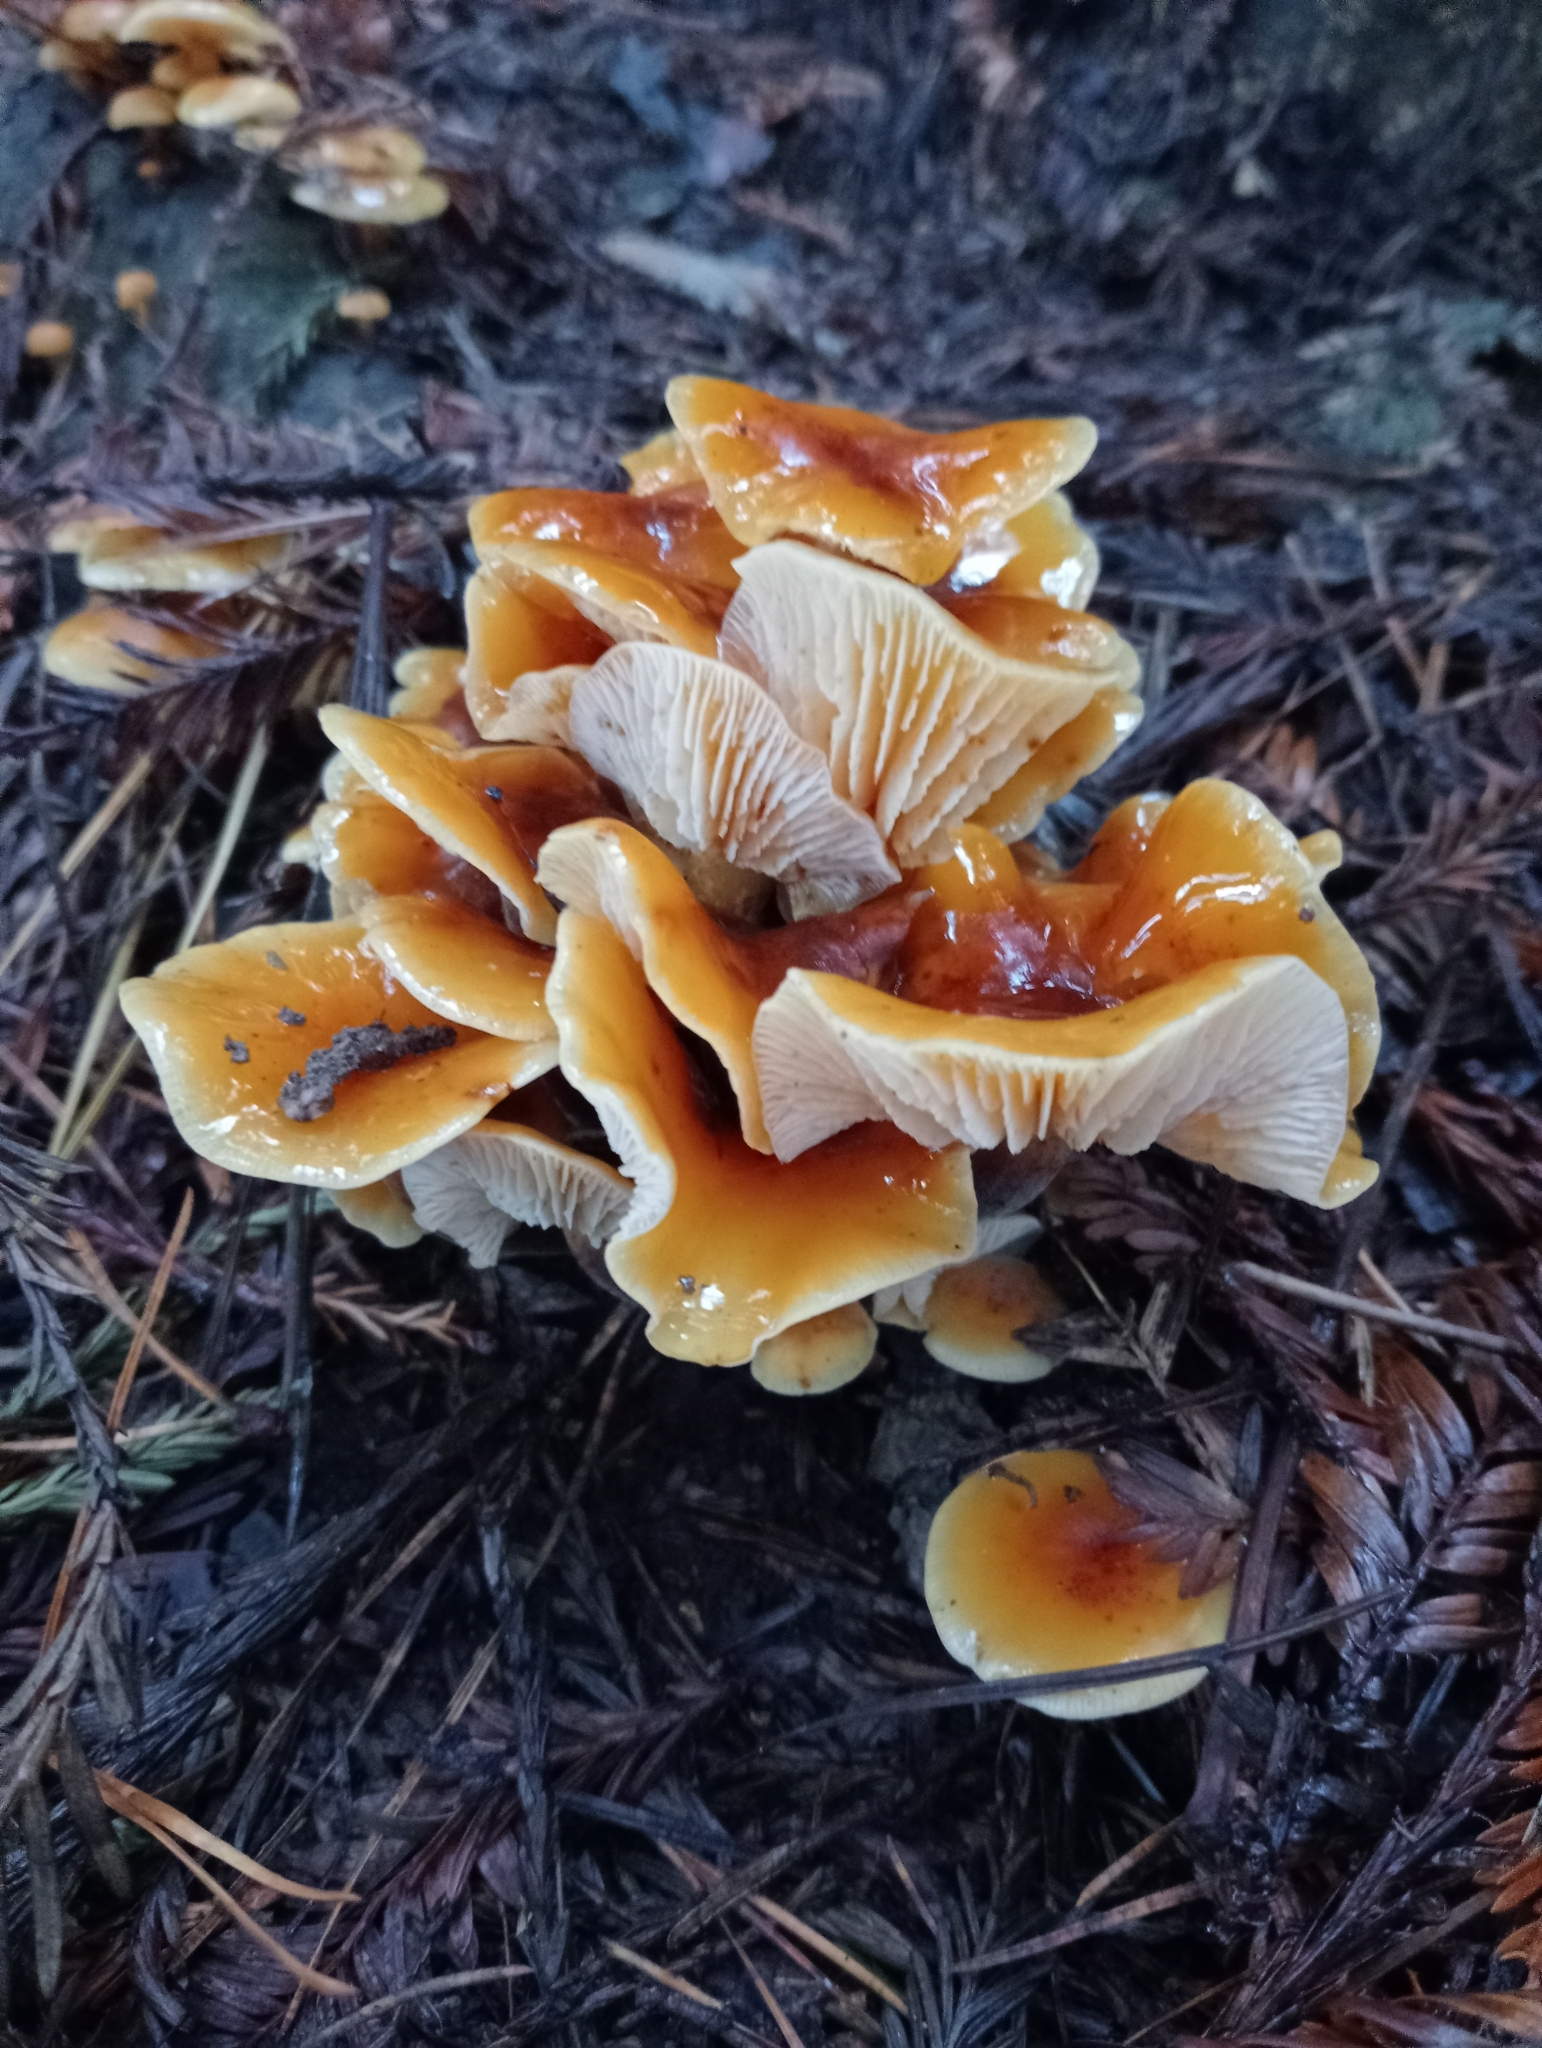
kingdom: Fungi
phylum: Basidiomycota
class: Agaricomycetes
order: Agaricales
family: Physalacriaceae
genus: Flammulina
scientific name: Flammulina velutipes
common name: Velvet shank
